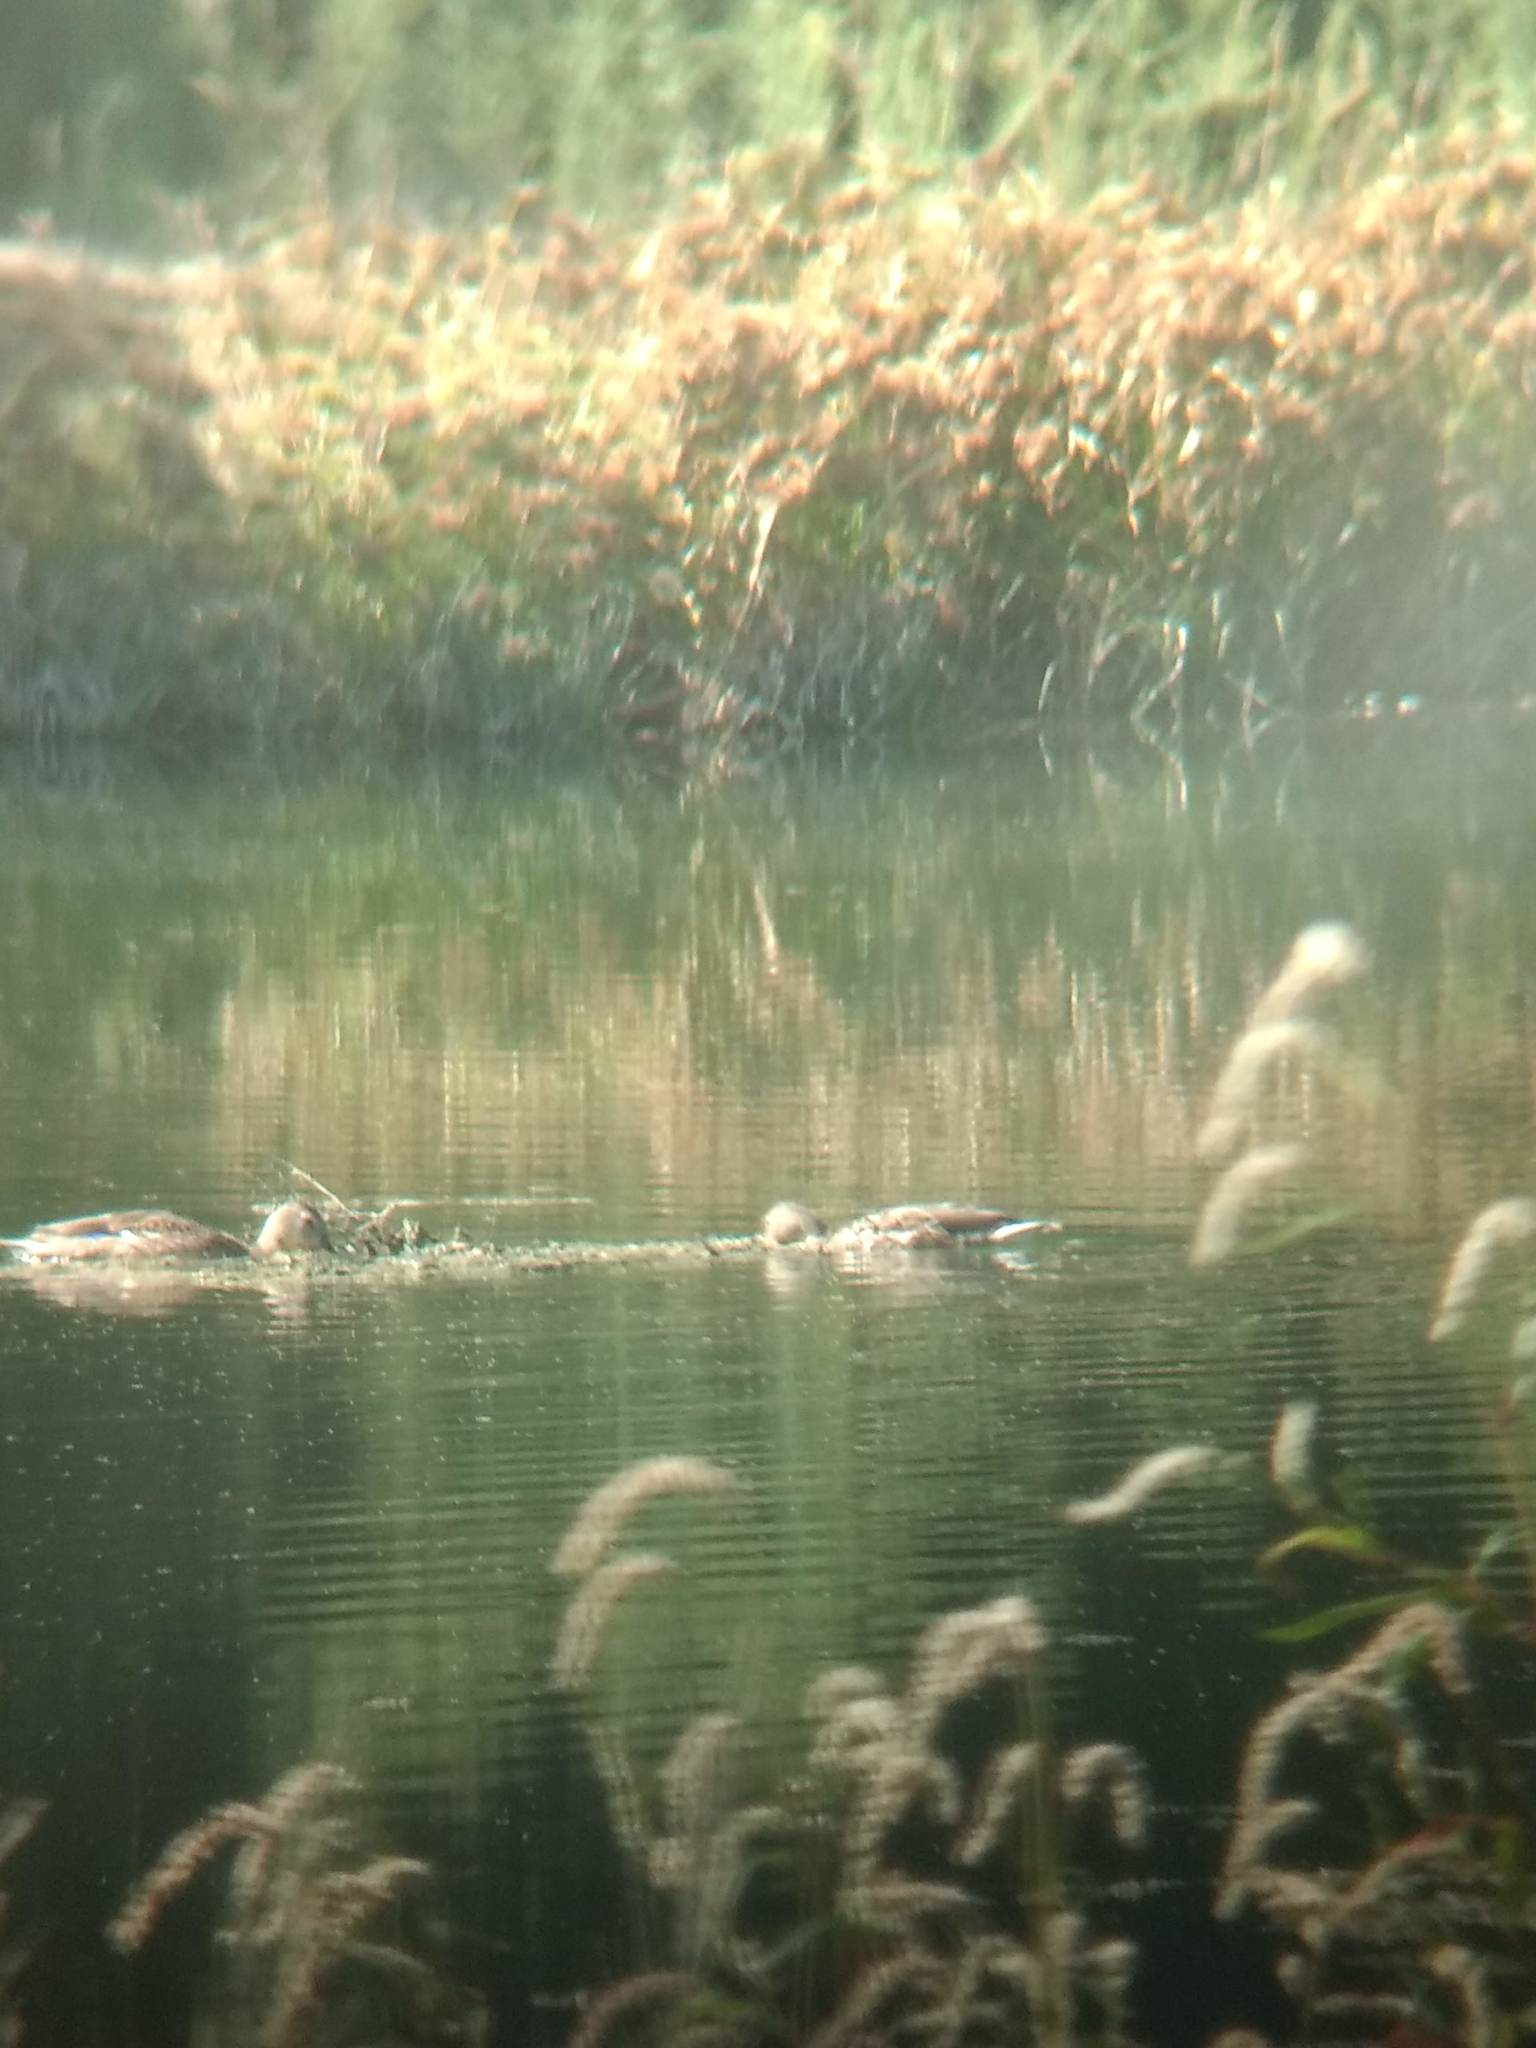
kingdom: Animalia
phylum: Chordata
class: Aves
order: Anseriformes
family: Anatidae
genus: Anas
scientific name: Anas platyrhynchos
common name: Mallard
